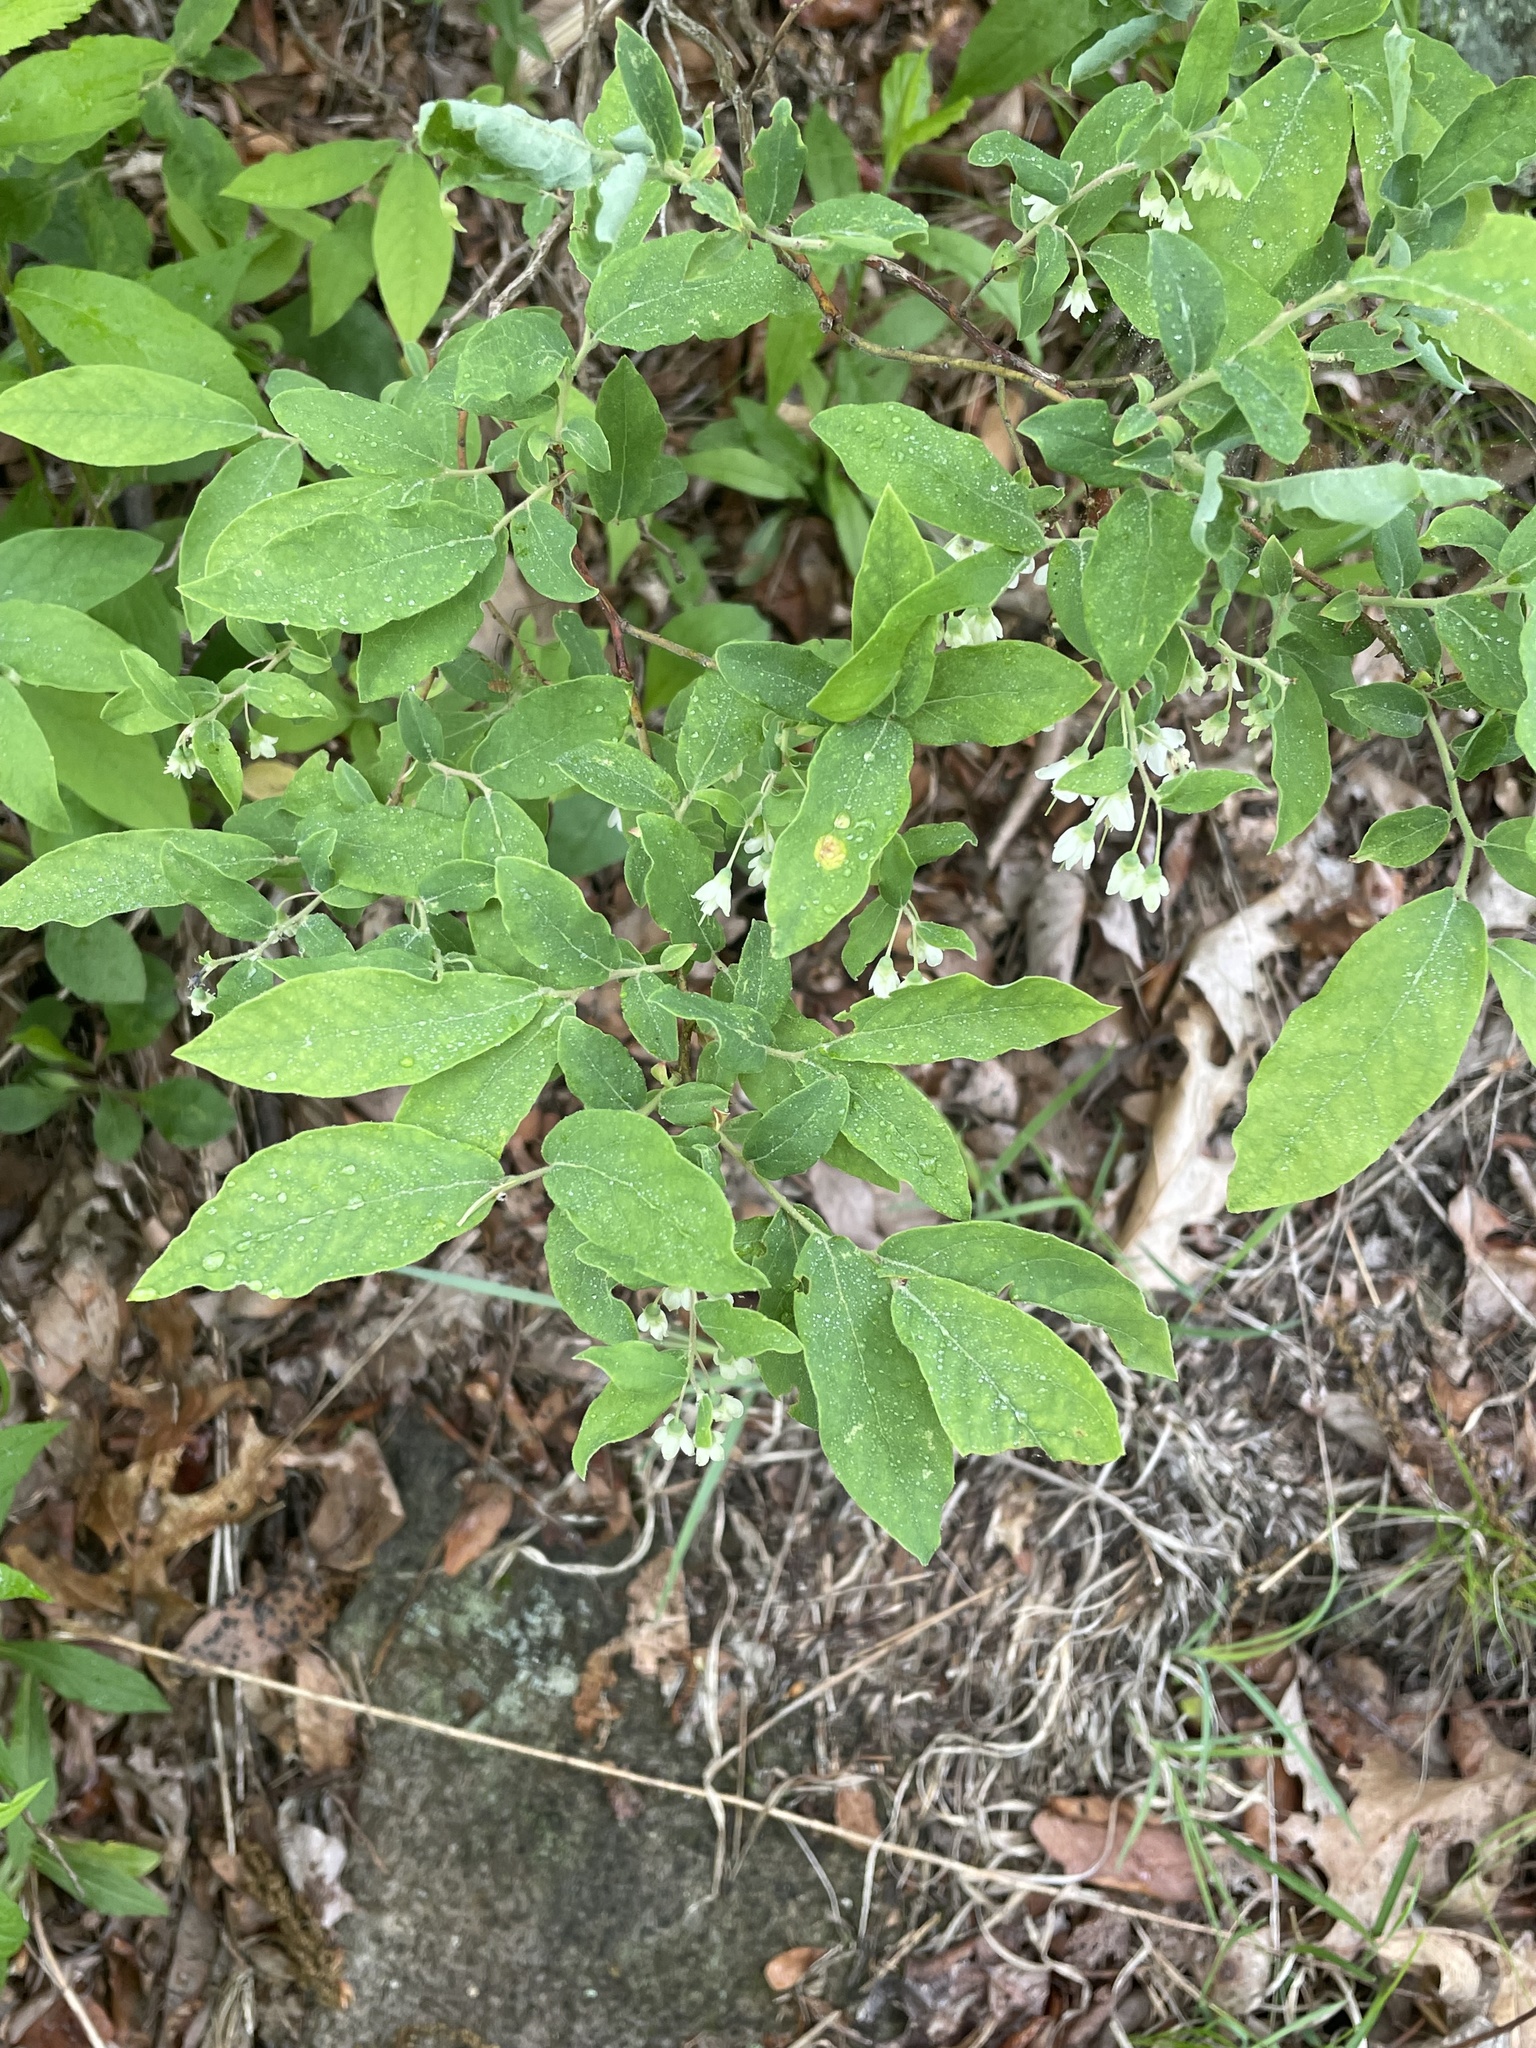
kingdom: Plantae
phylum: Tracheophyta
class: Magnoliopsida
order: Ericales
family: Ericaceae
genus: Vaccinium
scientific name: Vaccinium stamineum
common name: Deerberry
